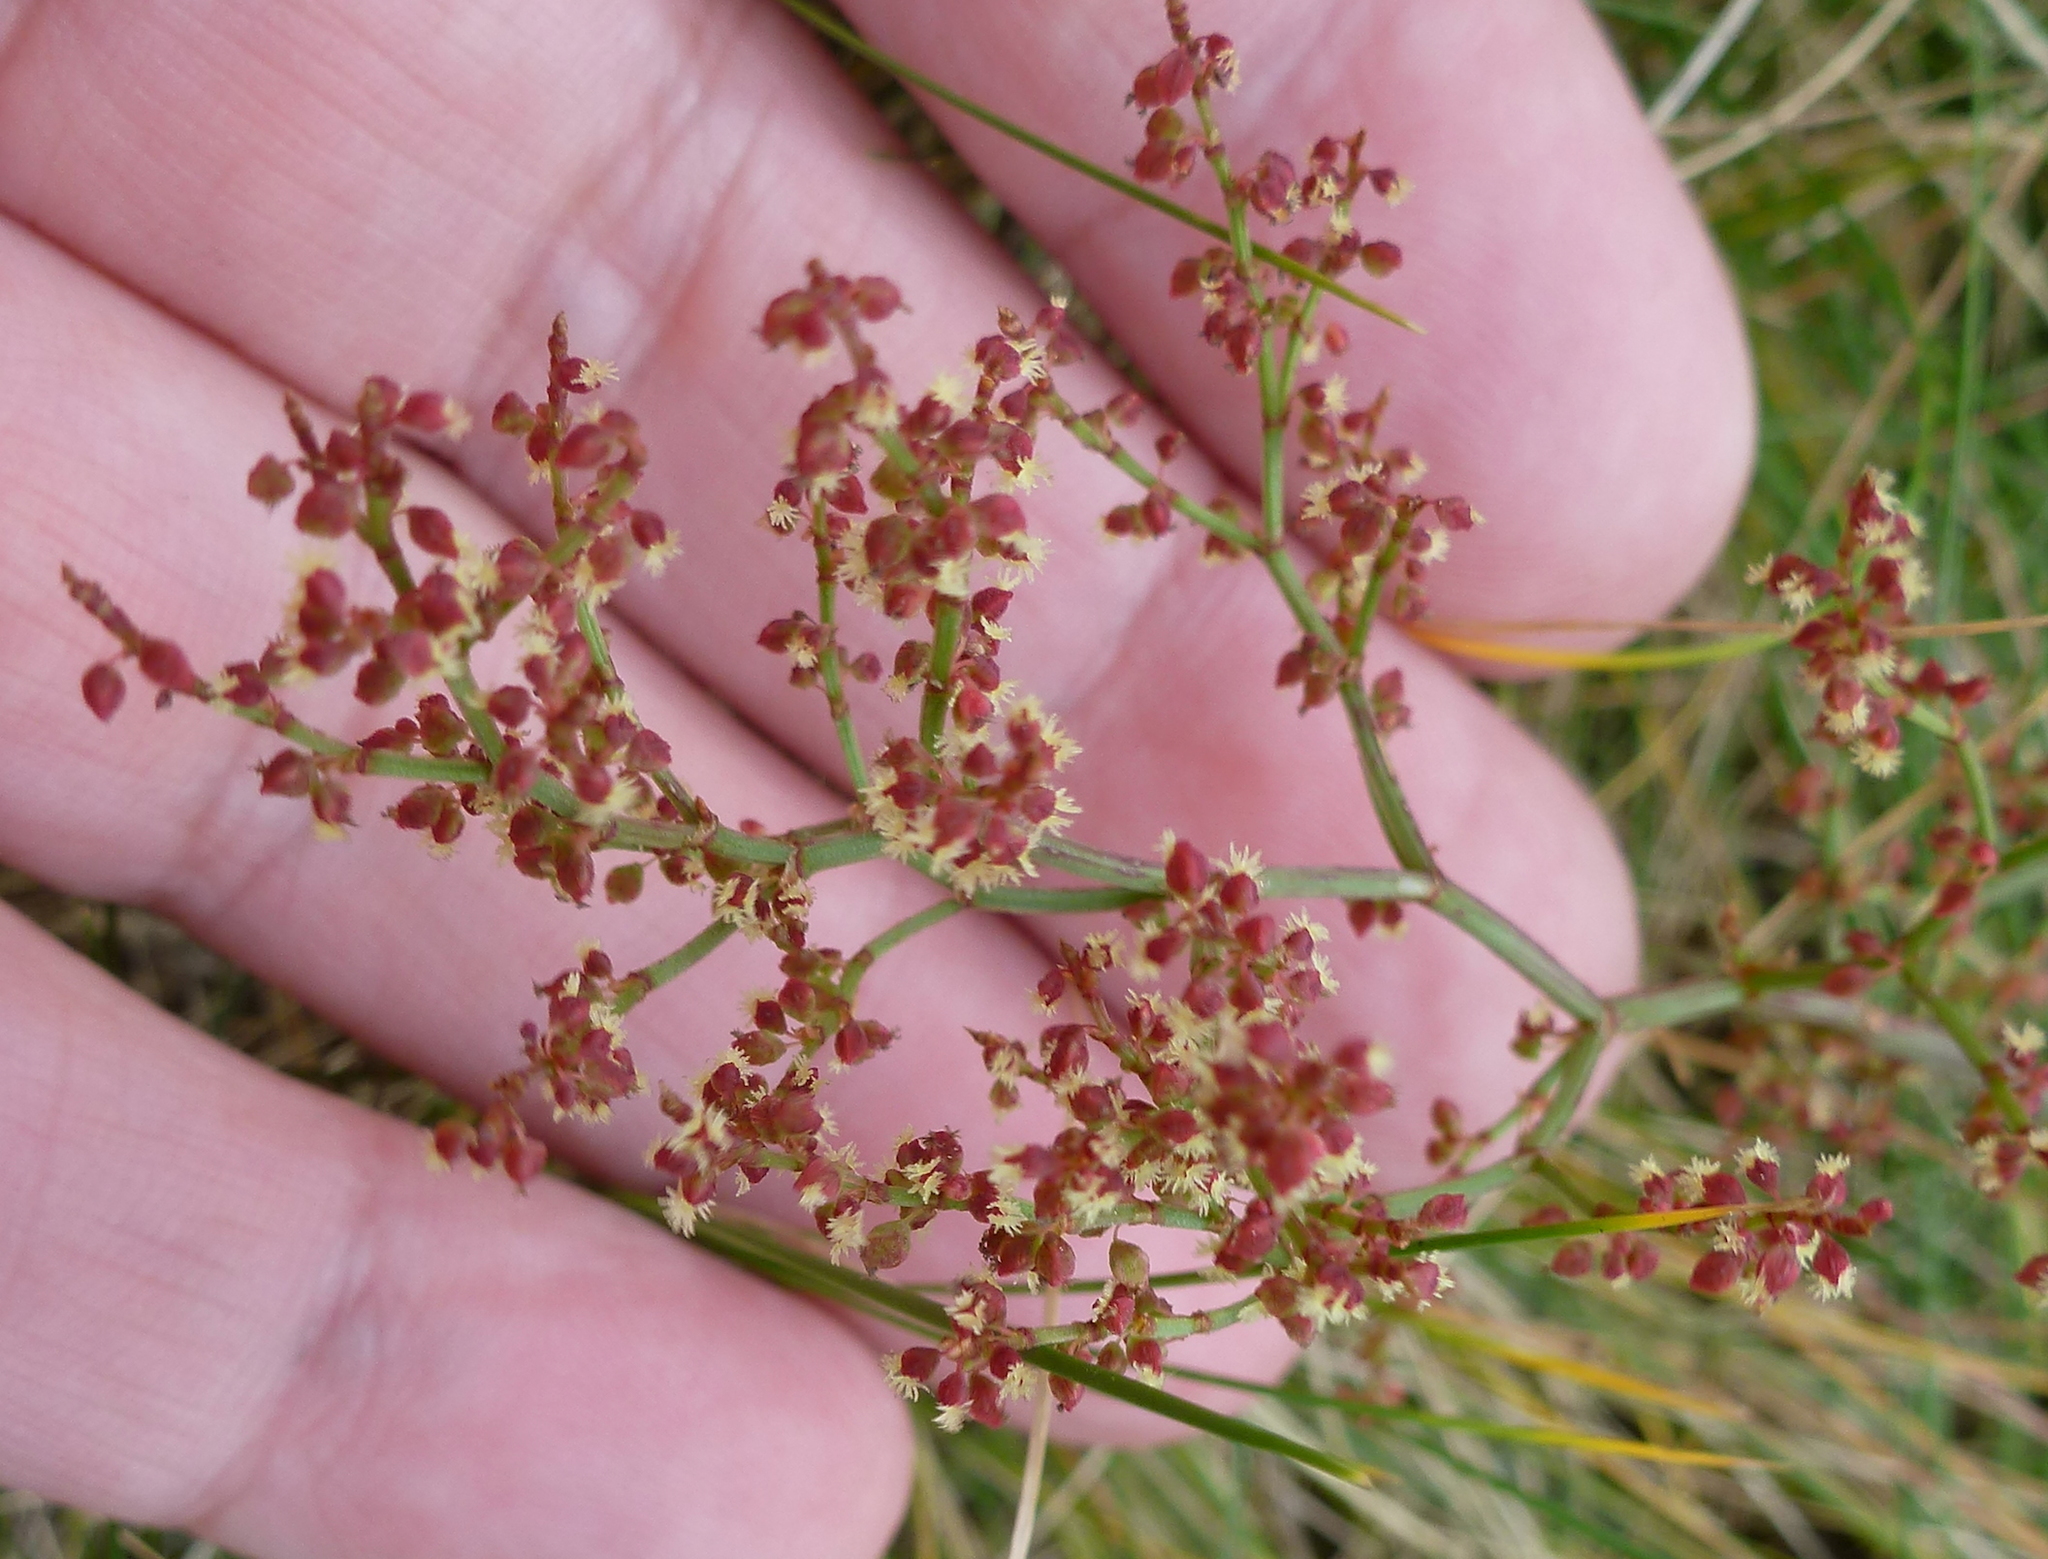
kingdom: Plantae
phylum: Tracheophyta
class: Magnoliopsida
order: Caryophyllales
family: Polygonaceae
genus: Rumex
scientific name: Rumex acetosella
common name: Common sheep sorrel
